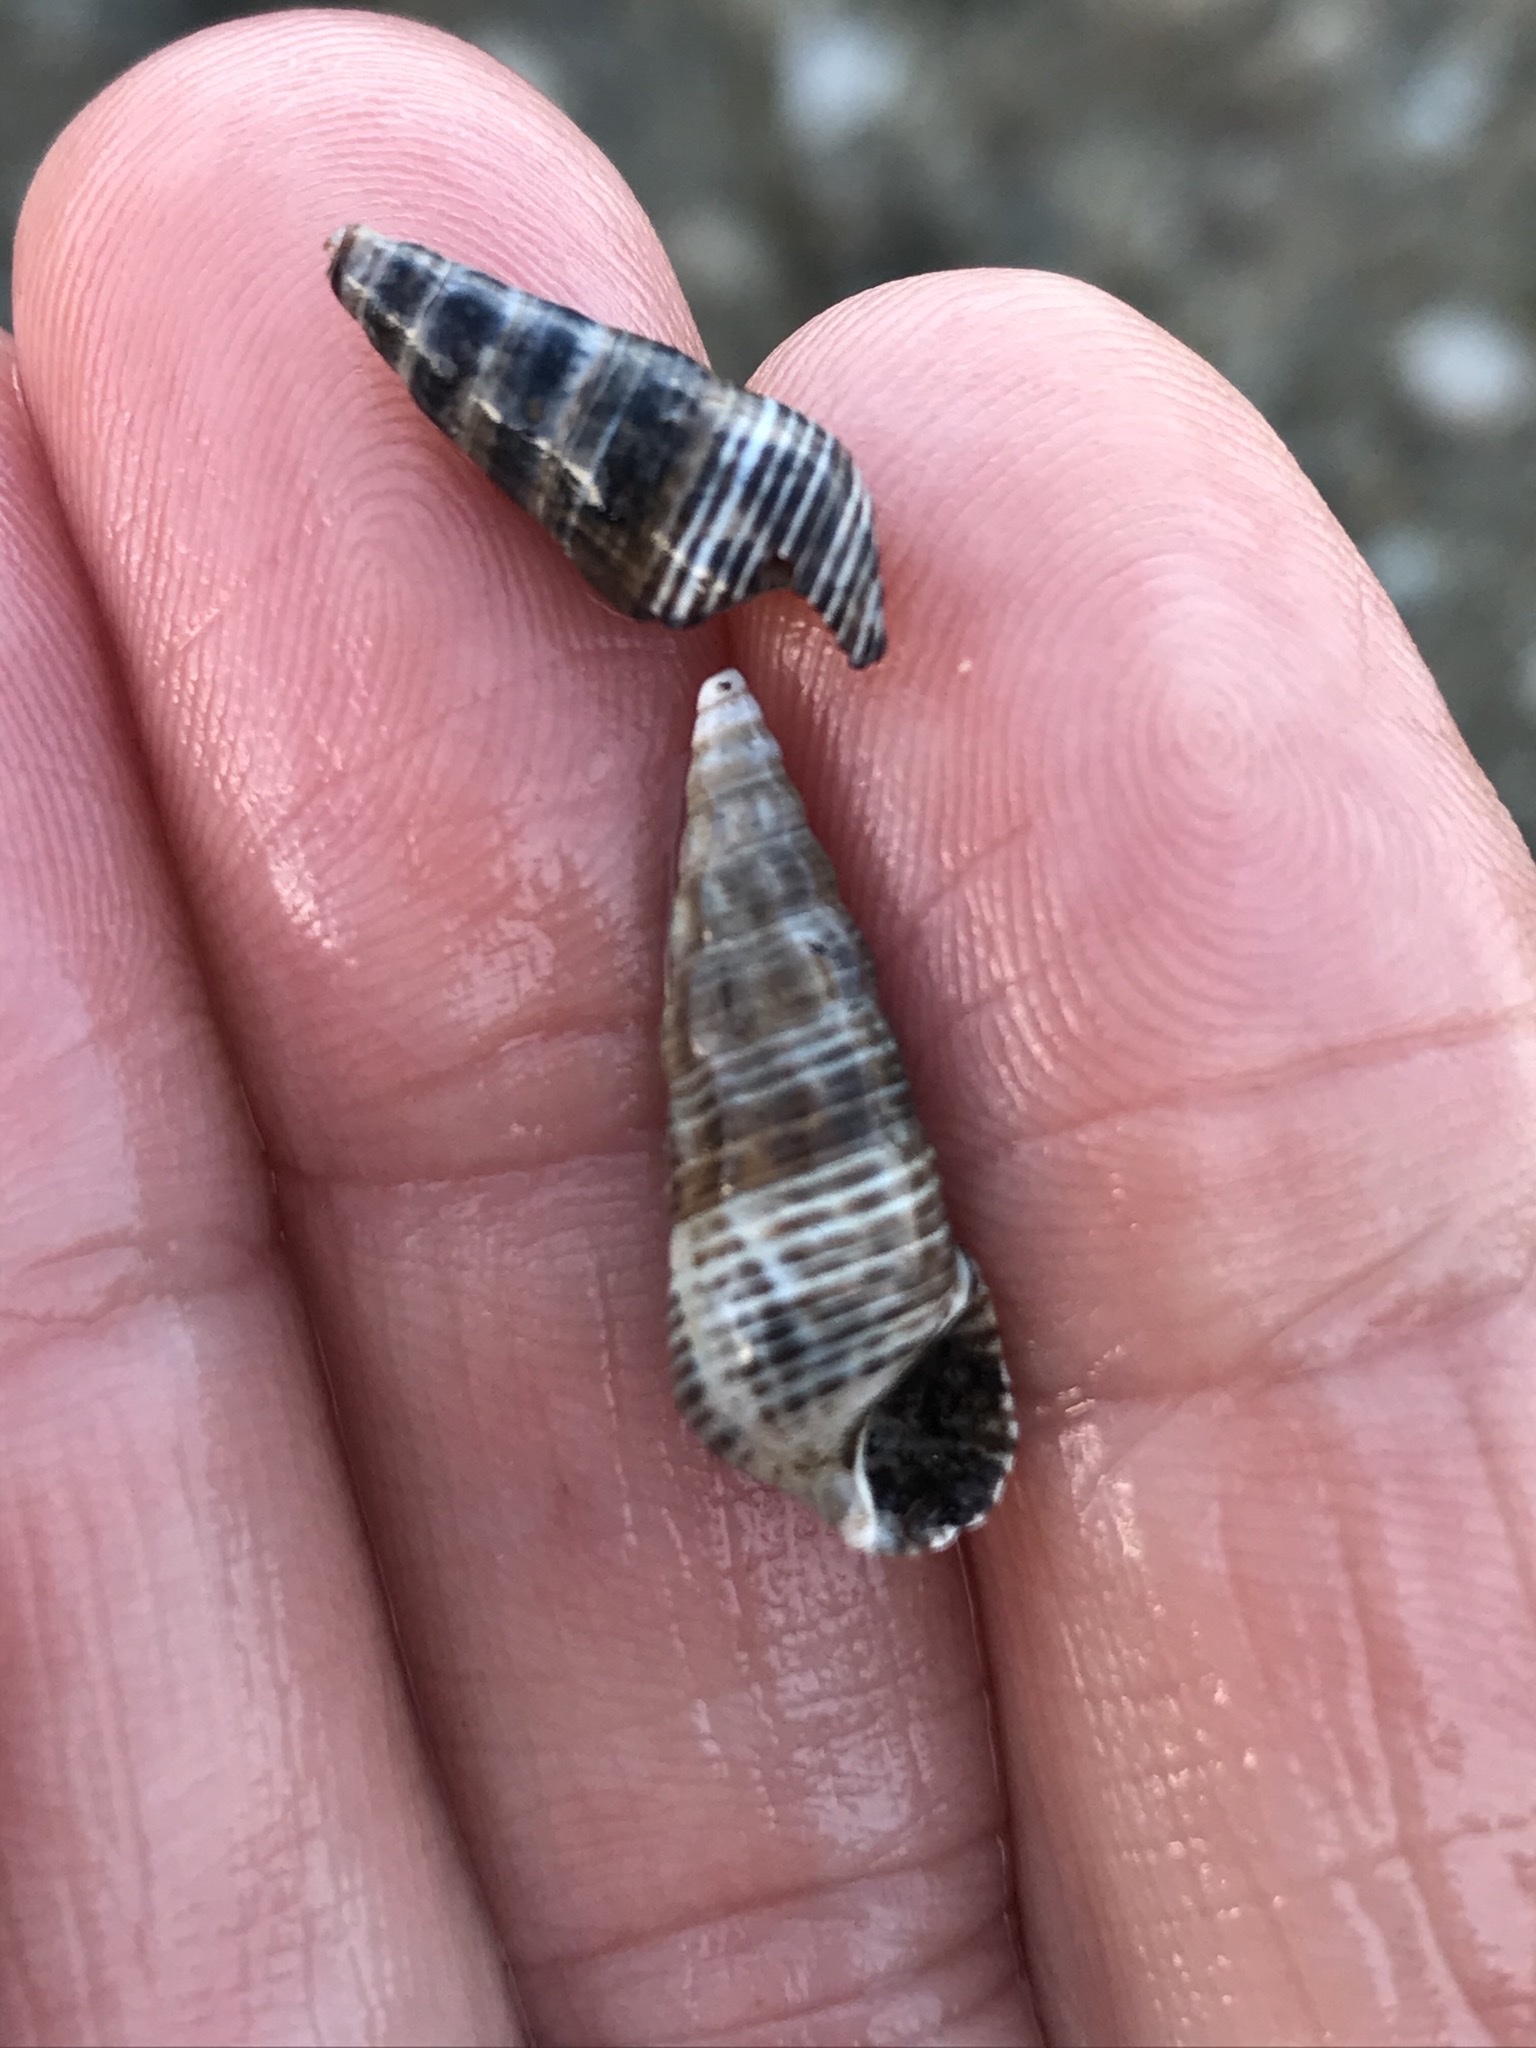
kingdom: Animalia
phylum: Mollusca
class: Gastropoda
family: Batillariidae
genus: Batillaria
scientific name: Batillaria attramentaria
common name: Japanese false cerith
